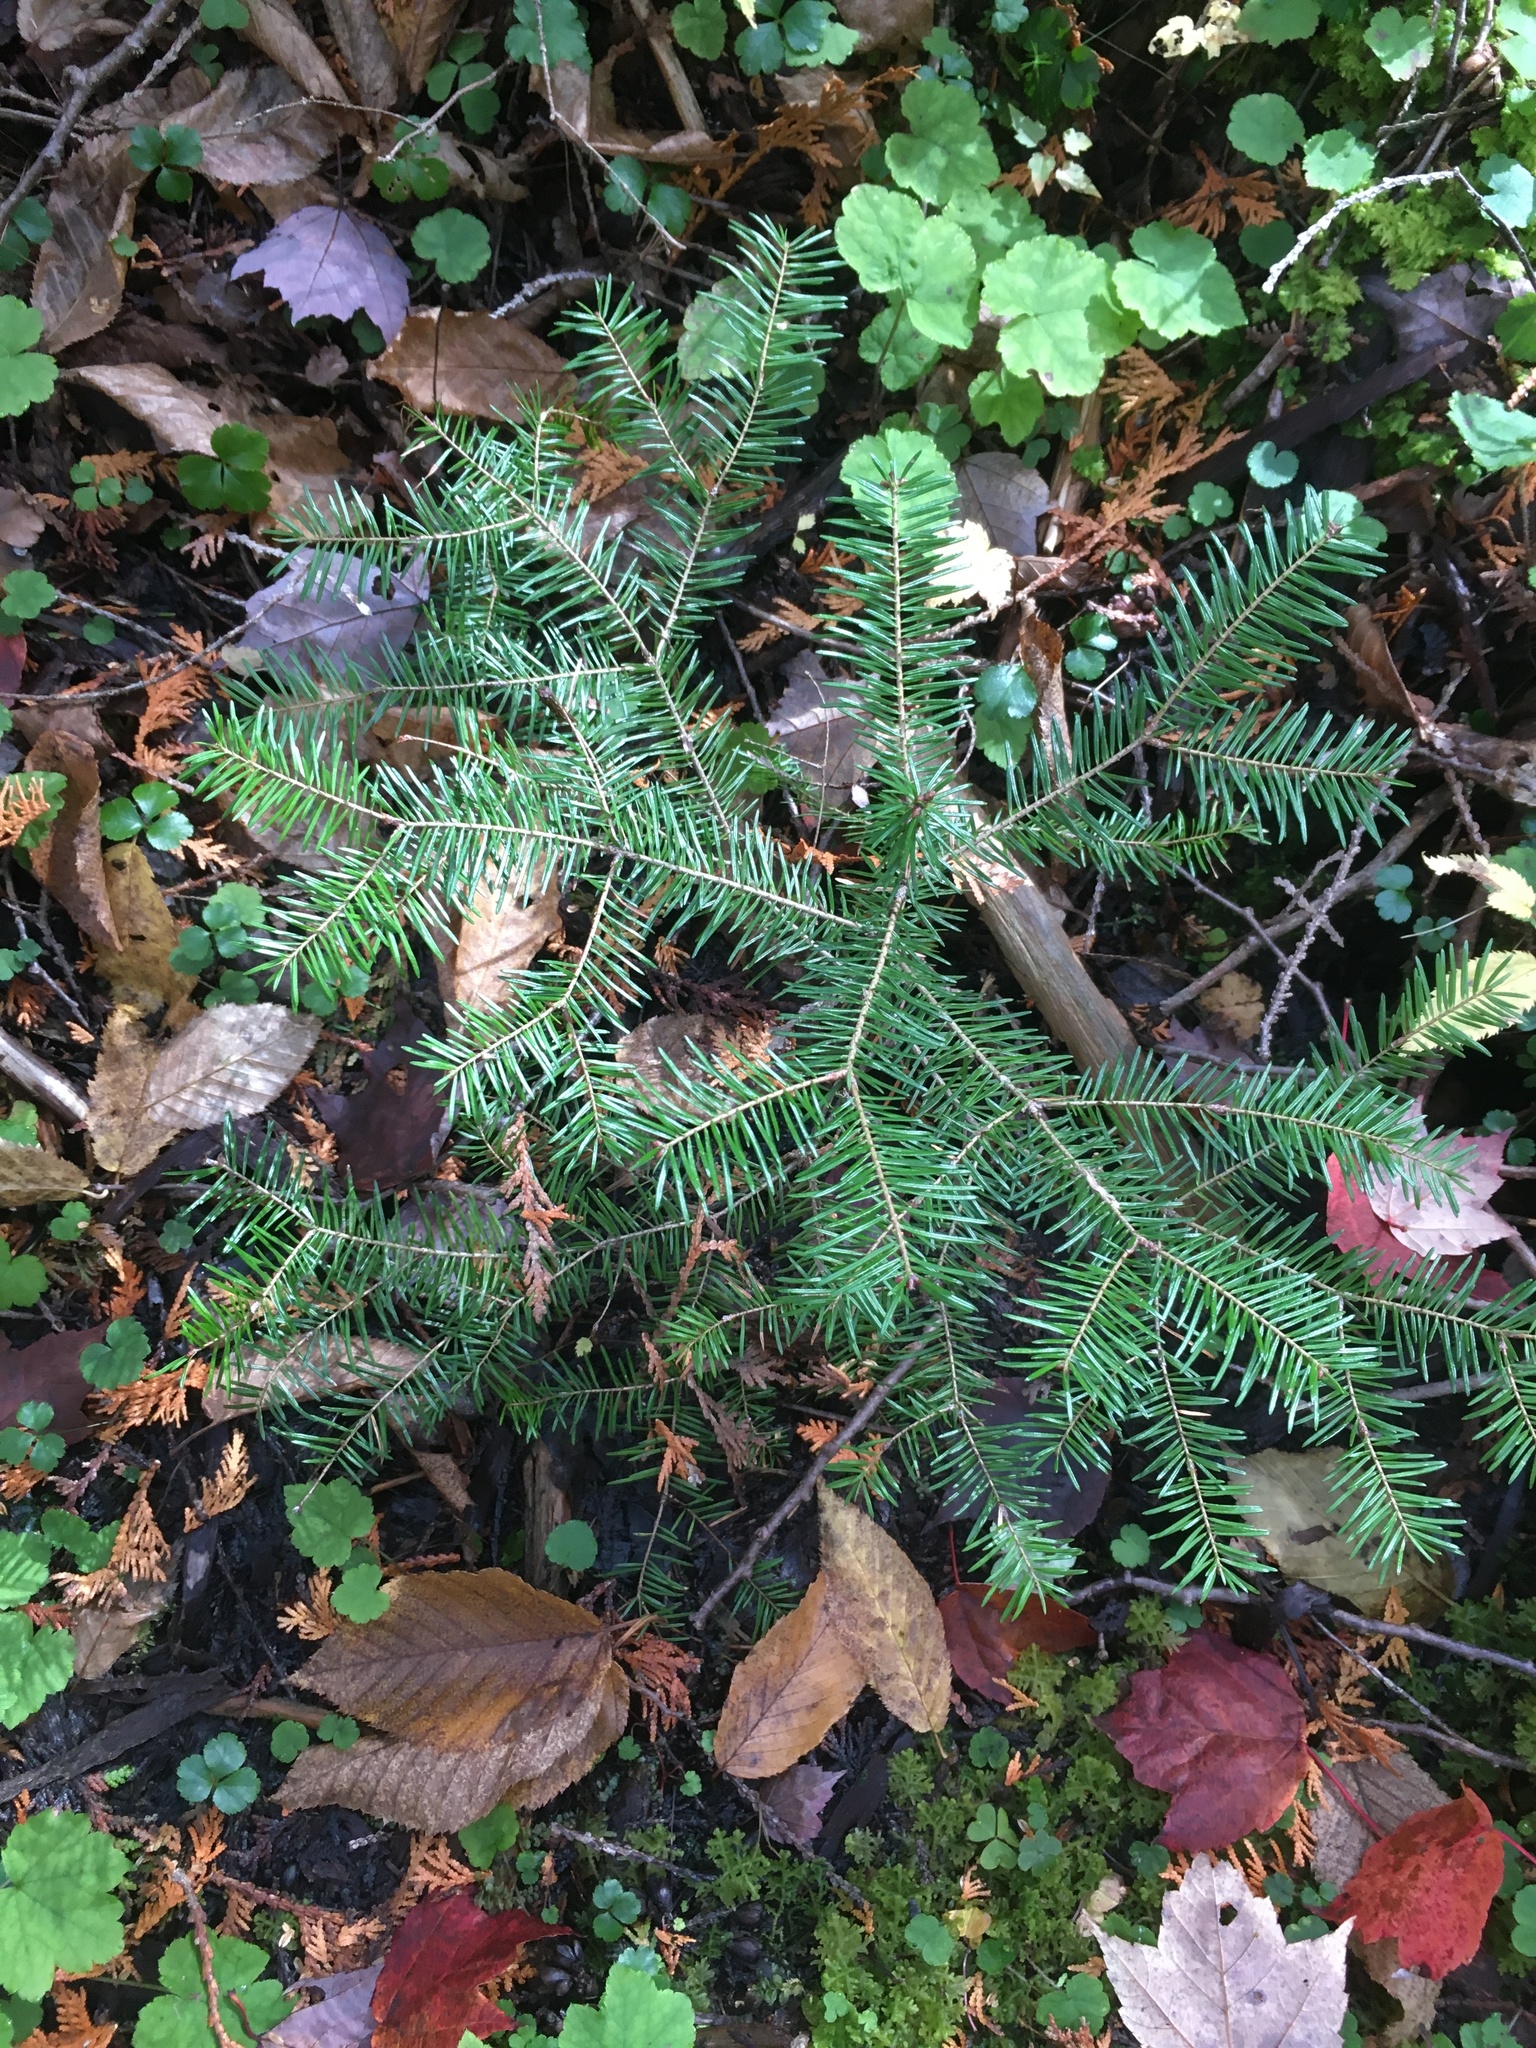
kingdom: Plantae
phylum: Tracheophyta
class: Pinopsida
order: Pinales
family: Pinaceae
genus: Abies
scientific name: Abies balsamea
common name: Balsam fir
